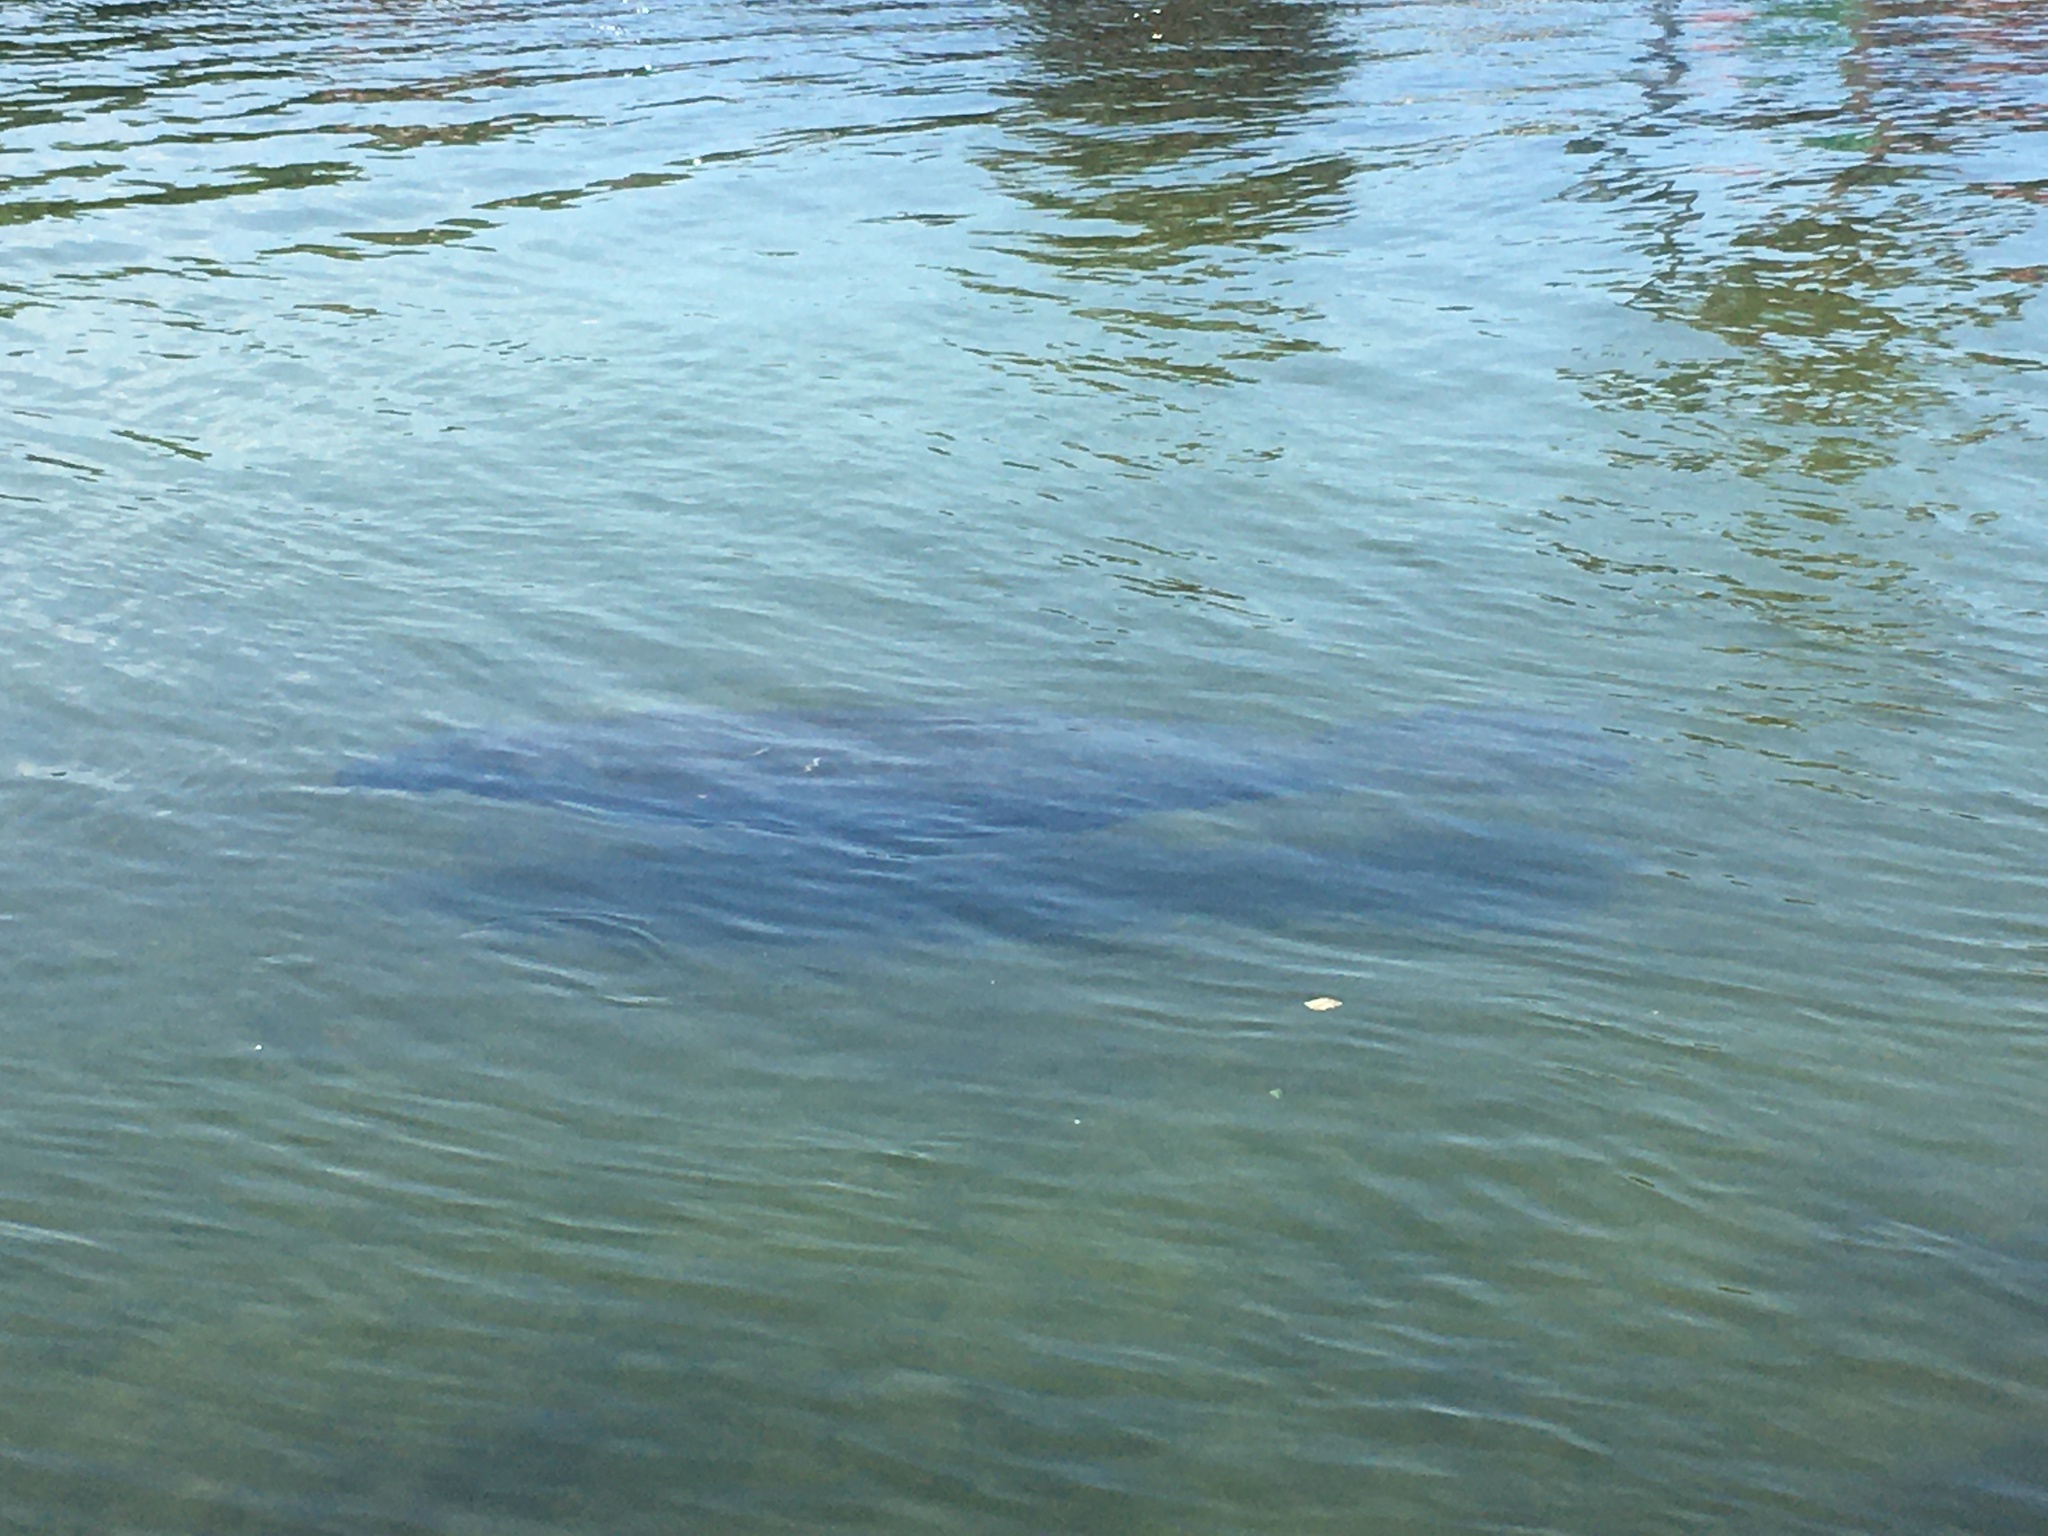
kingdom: Animalia
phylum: Chordata
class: Mammalia
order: Sirenia
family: Trichechidae
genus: Trichechus
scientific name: Trichechus manatus
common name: West indian manatee
